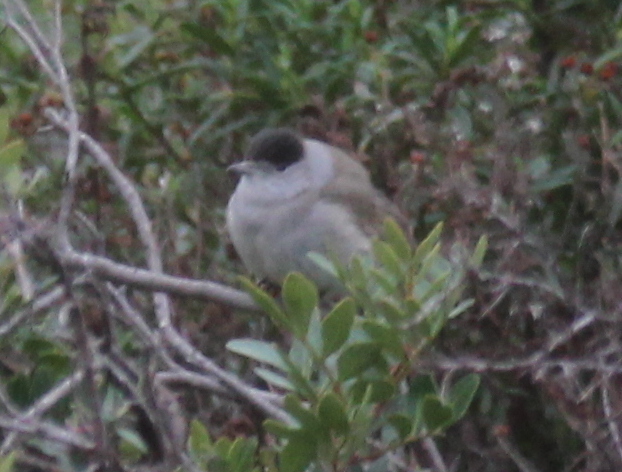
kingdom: Animalia
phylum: Chordata
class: Aves
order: Passeriformes
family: Sylviidae
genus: Sylvia
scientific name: Sylvia atricapilla
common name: Eurasian blackcap
